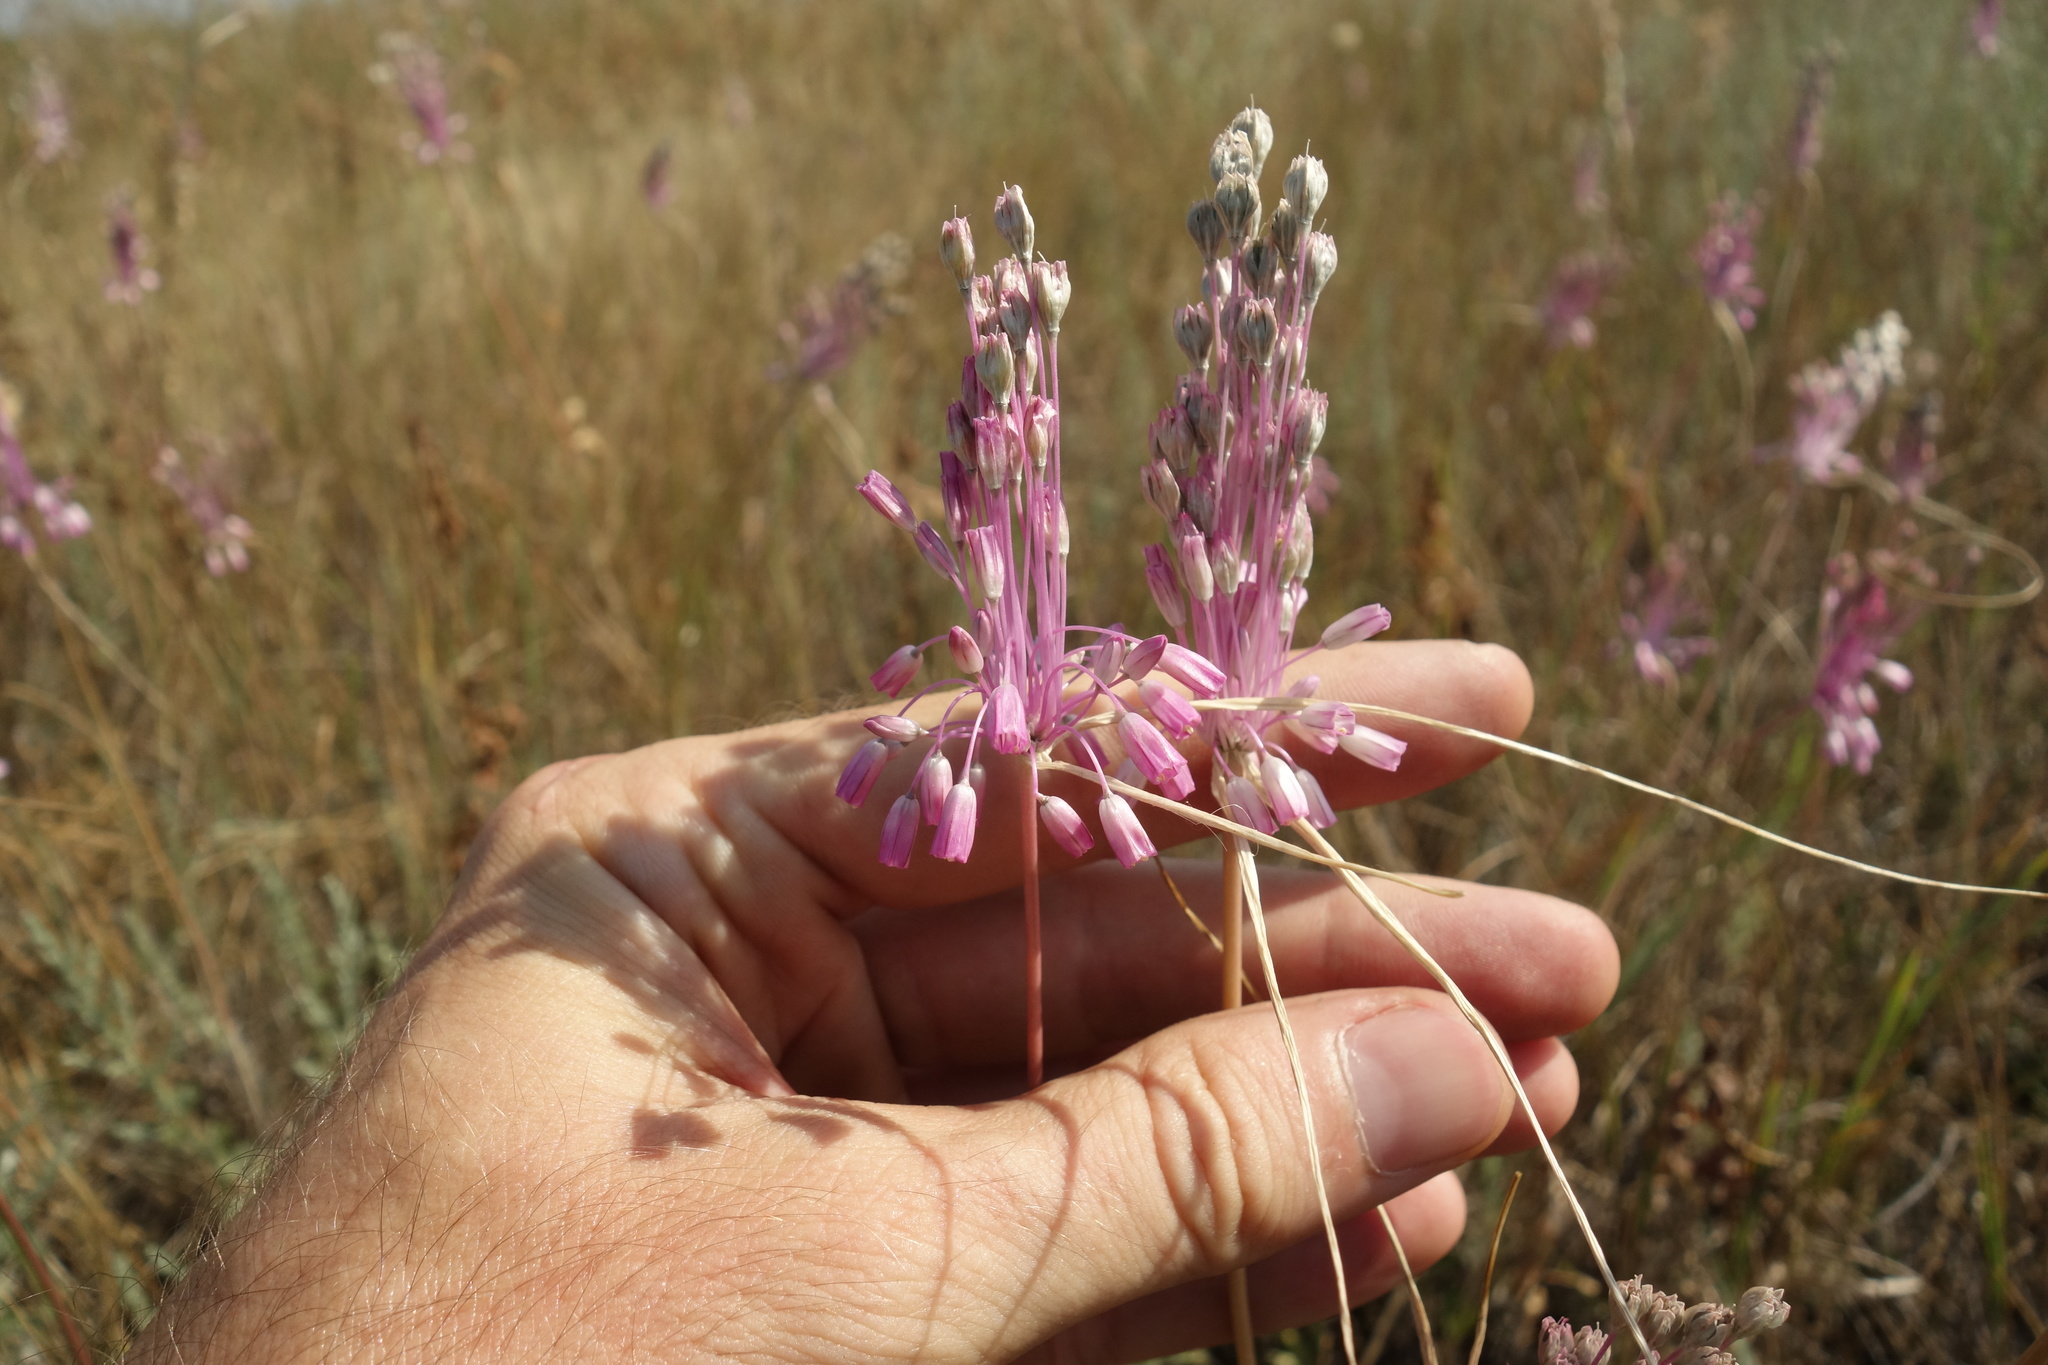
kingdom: Plantae
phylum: Tracheophyta
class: Liliopsida
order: Asparagales
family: Amaryllidaceae
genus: Allium
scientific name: Allium praescissum
